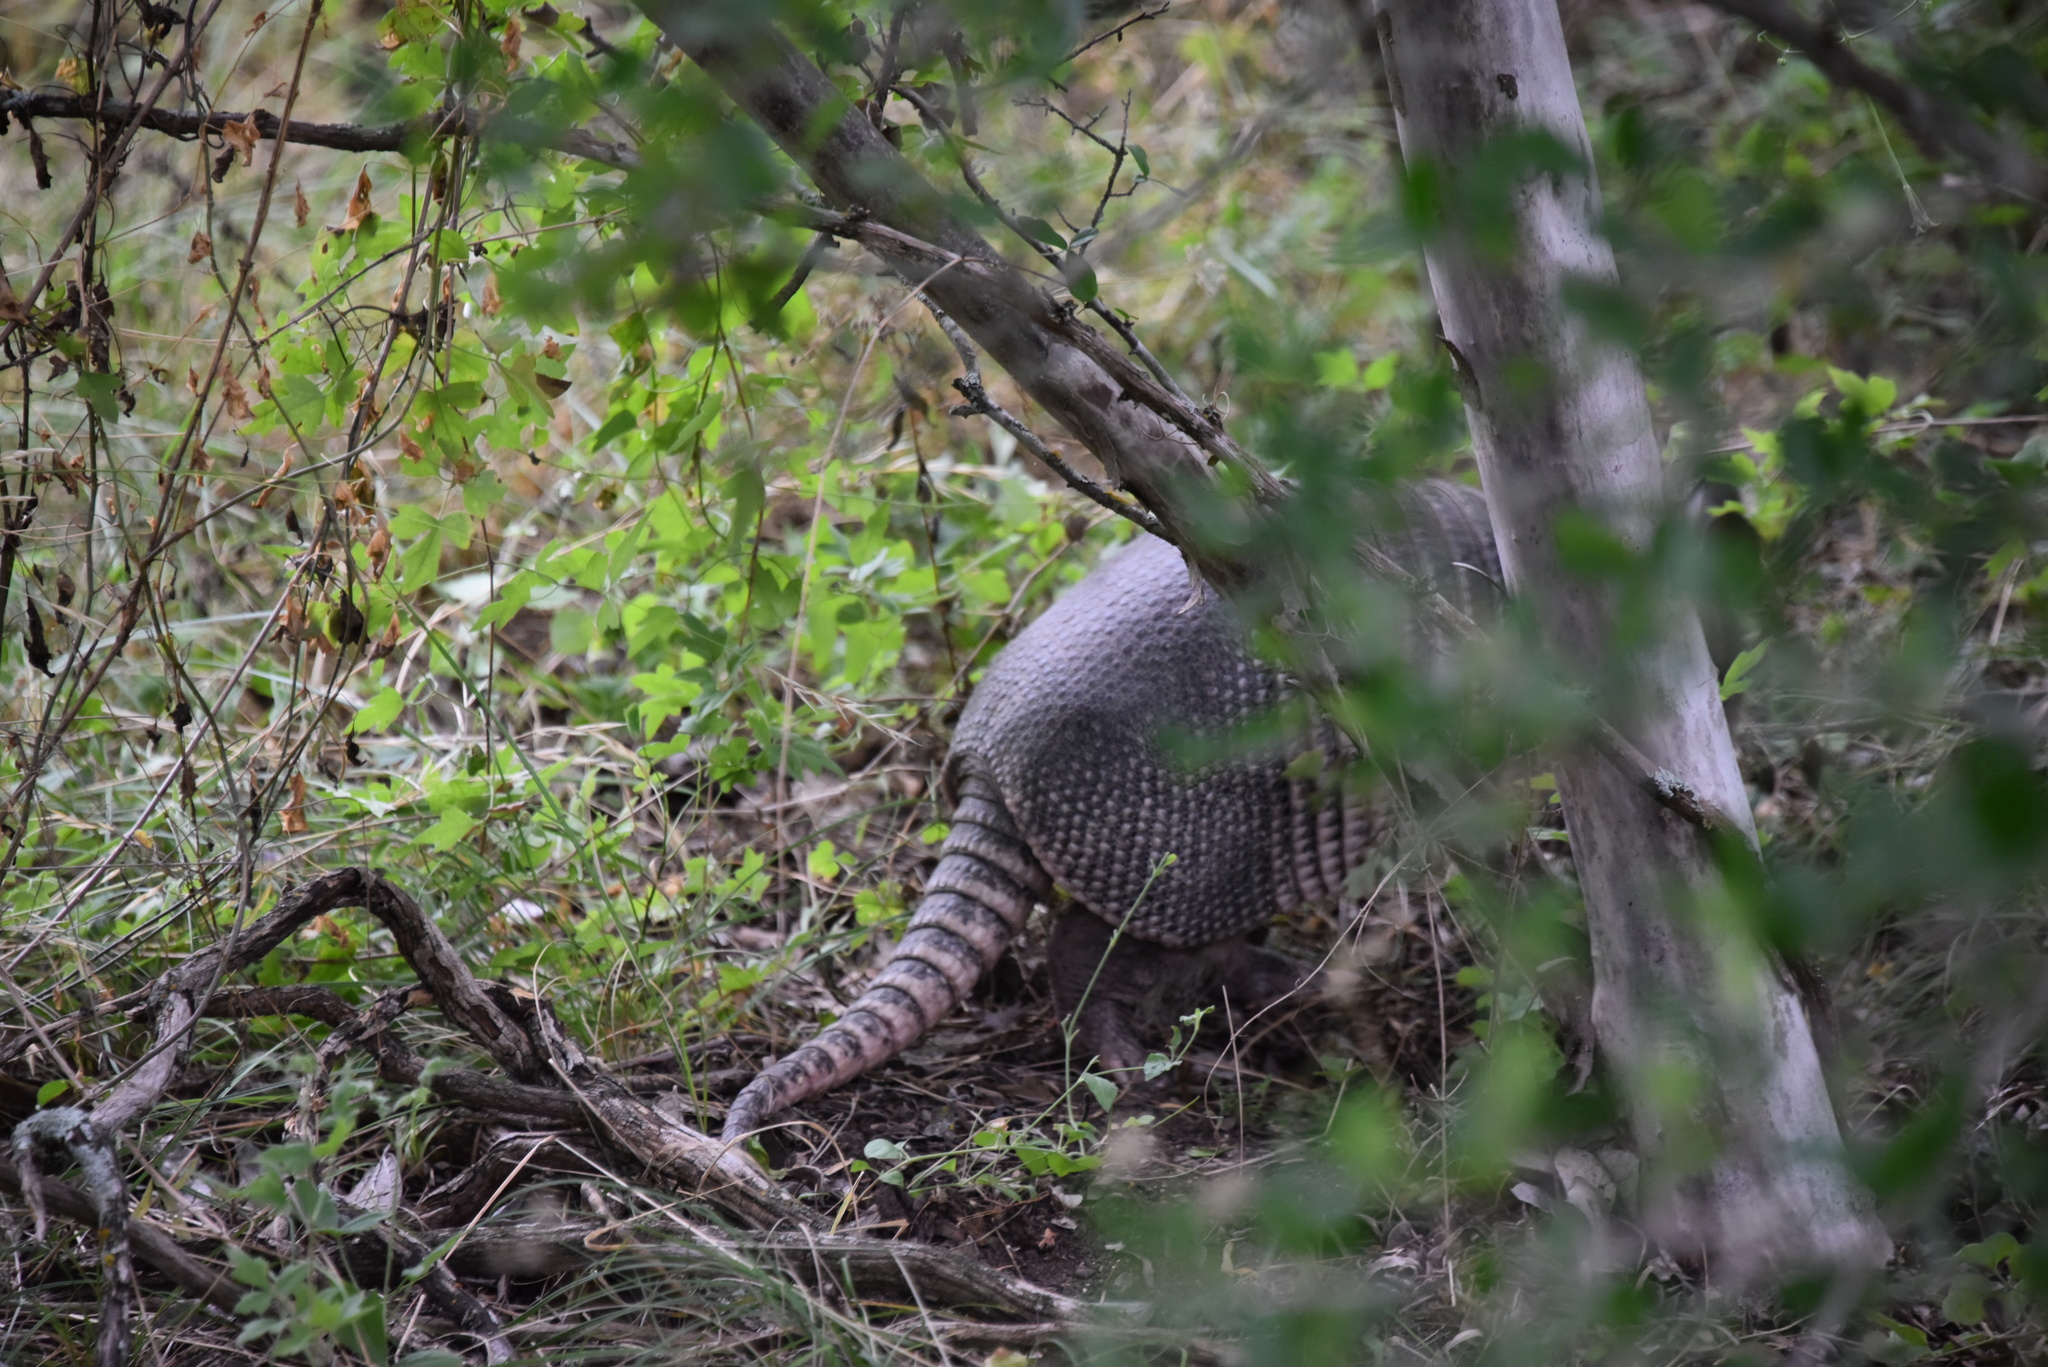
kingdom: Animalia
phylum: Chordata
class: Mammalia
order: Cingulata
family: Dasypodidae
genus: Dasypus
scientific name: Dasypus novemcinctus
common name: Nine-banded armadillo
